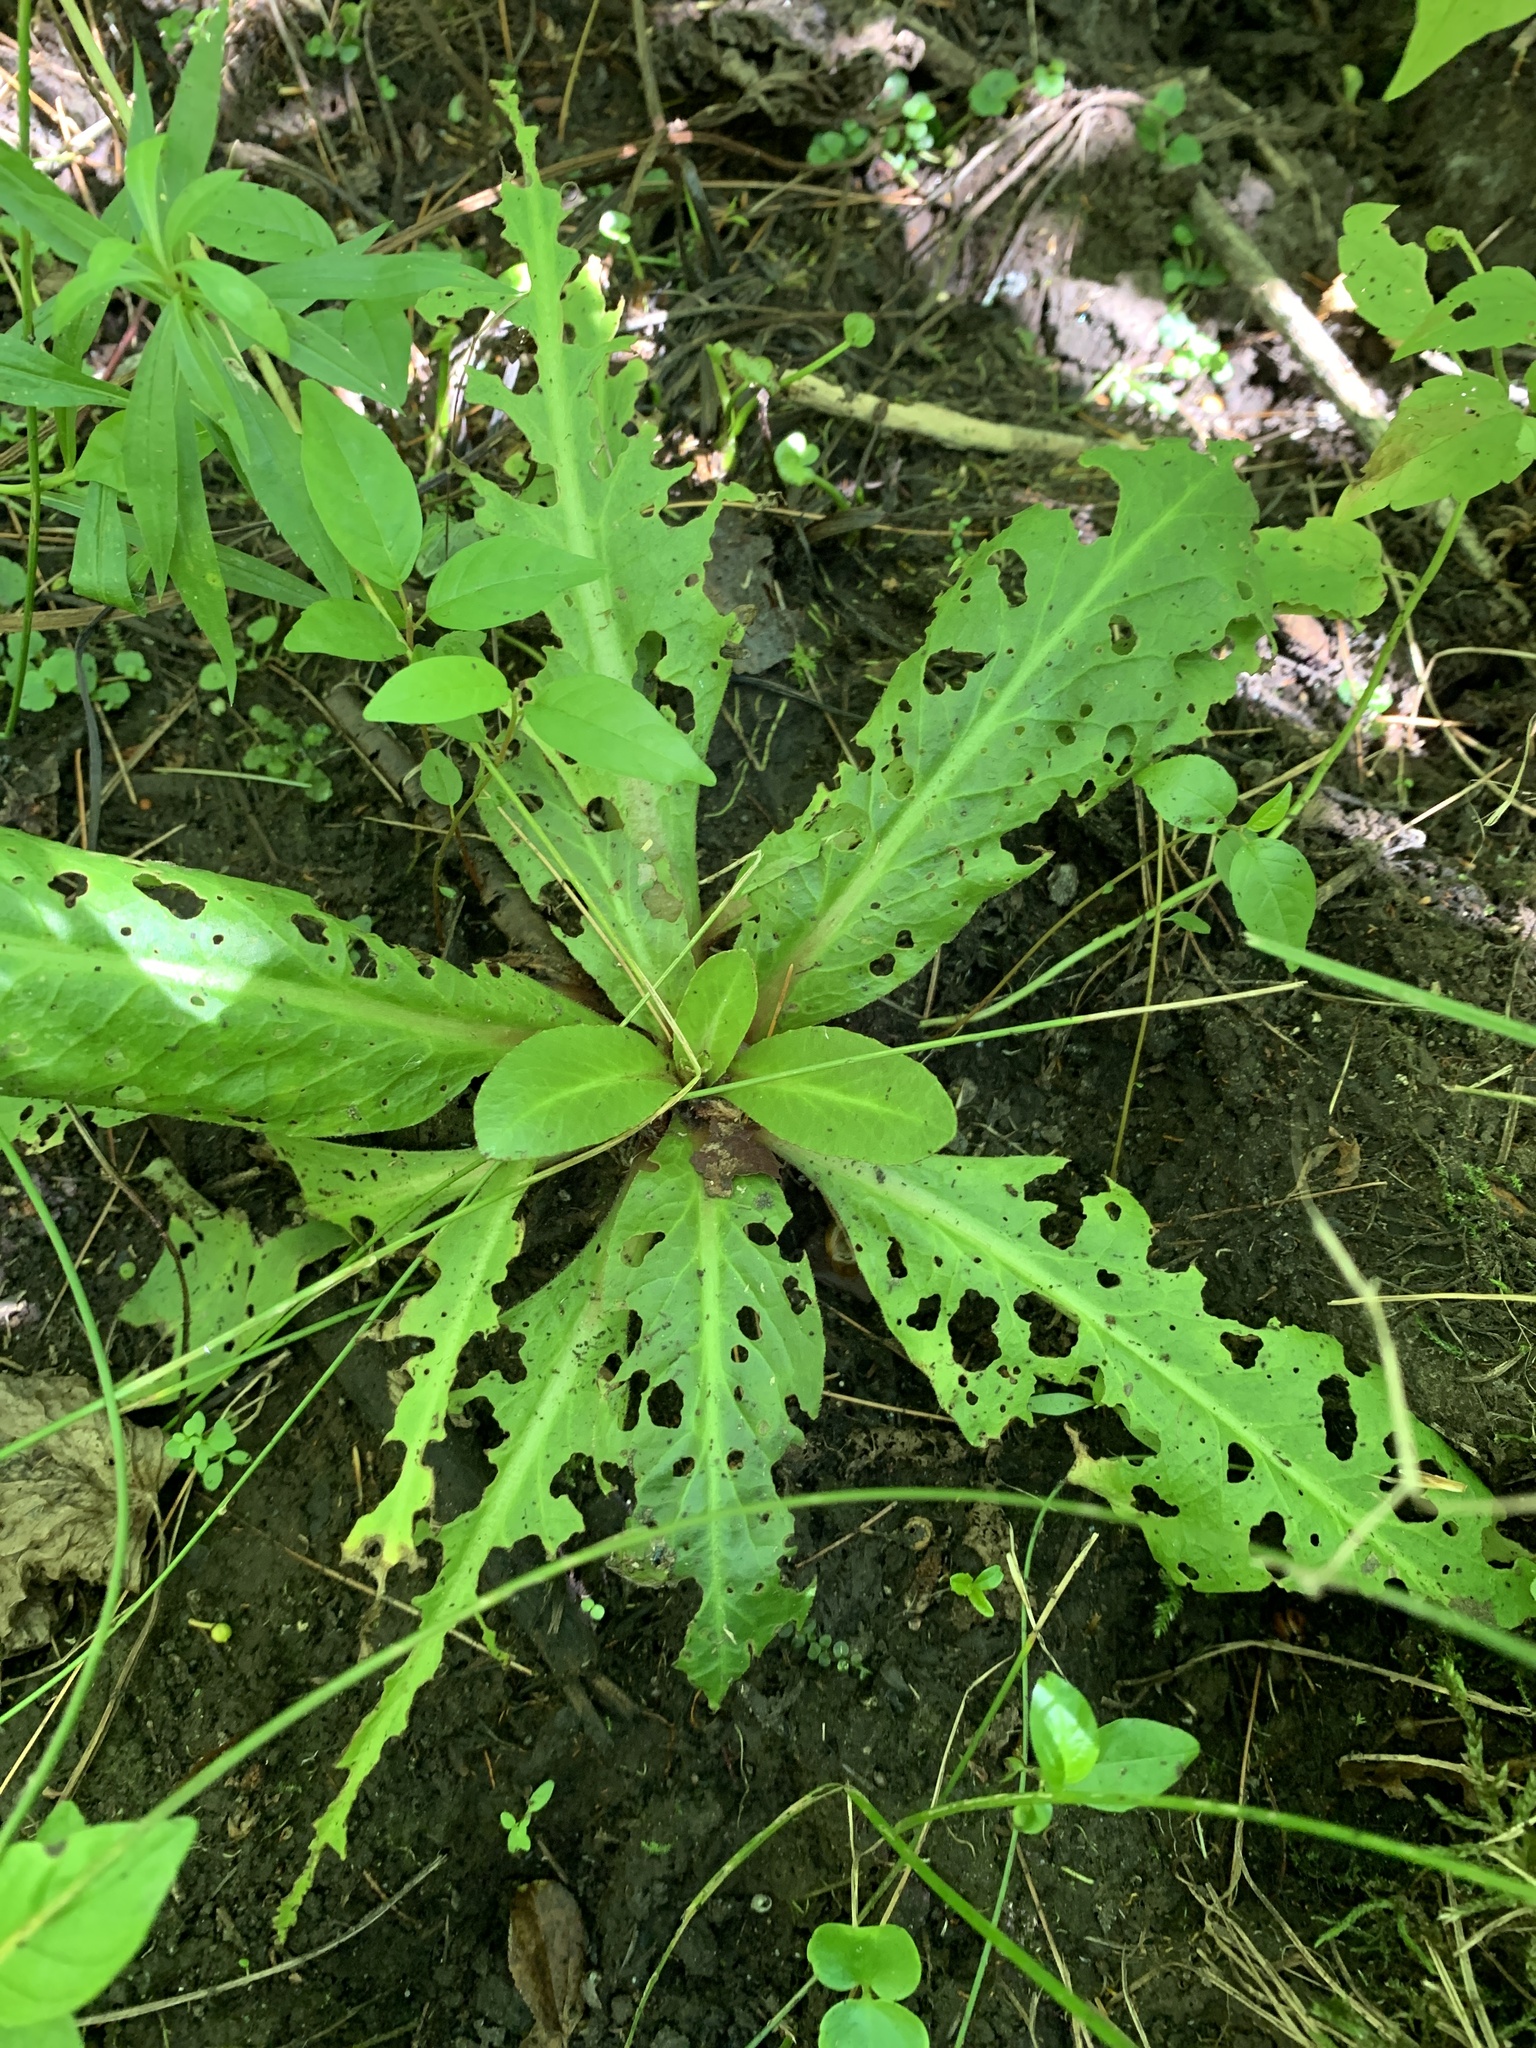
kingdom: Plantae
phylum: Tracheophyta
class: Magnoliopsida
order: Saxifragales
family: Saxifragaceae
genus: Micranthes
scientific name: Micranthes pensylvanica
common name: Marsh saxifrage
